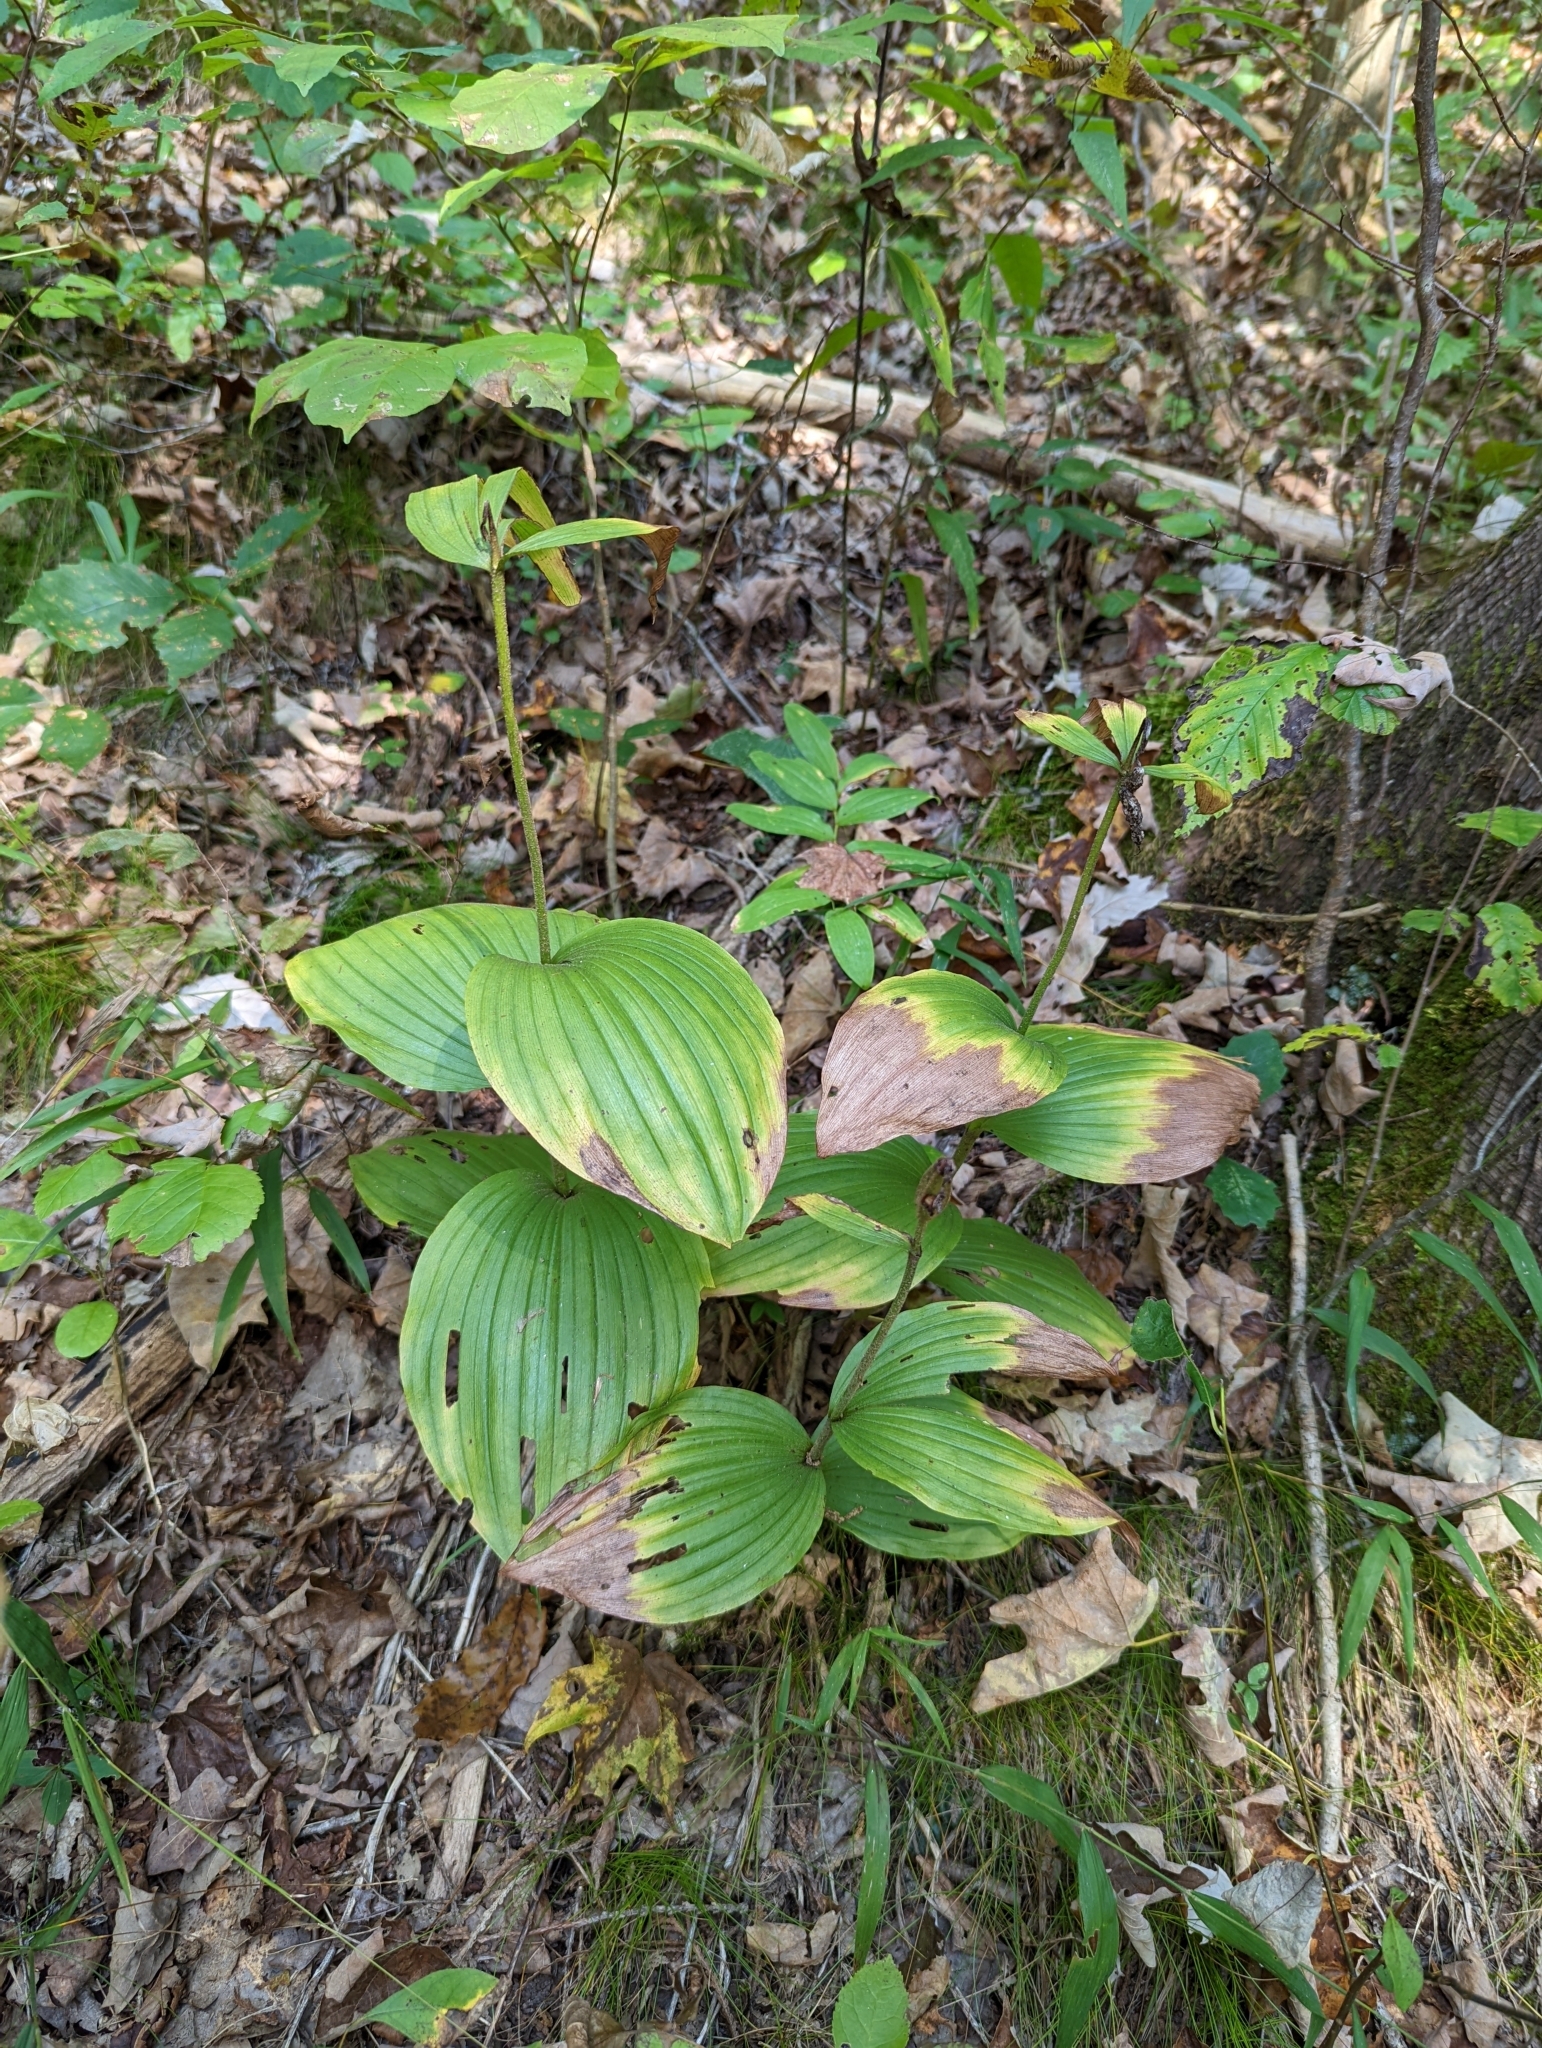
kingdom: Plantae
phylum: Tracheophyta
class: Liliopsida
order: Asparagales
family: Orchidaceae
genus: Cypripedium
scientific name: Cypripedium parviflorum
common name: American yellow lady's-slipper
